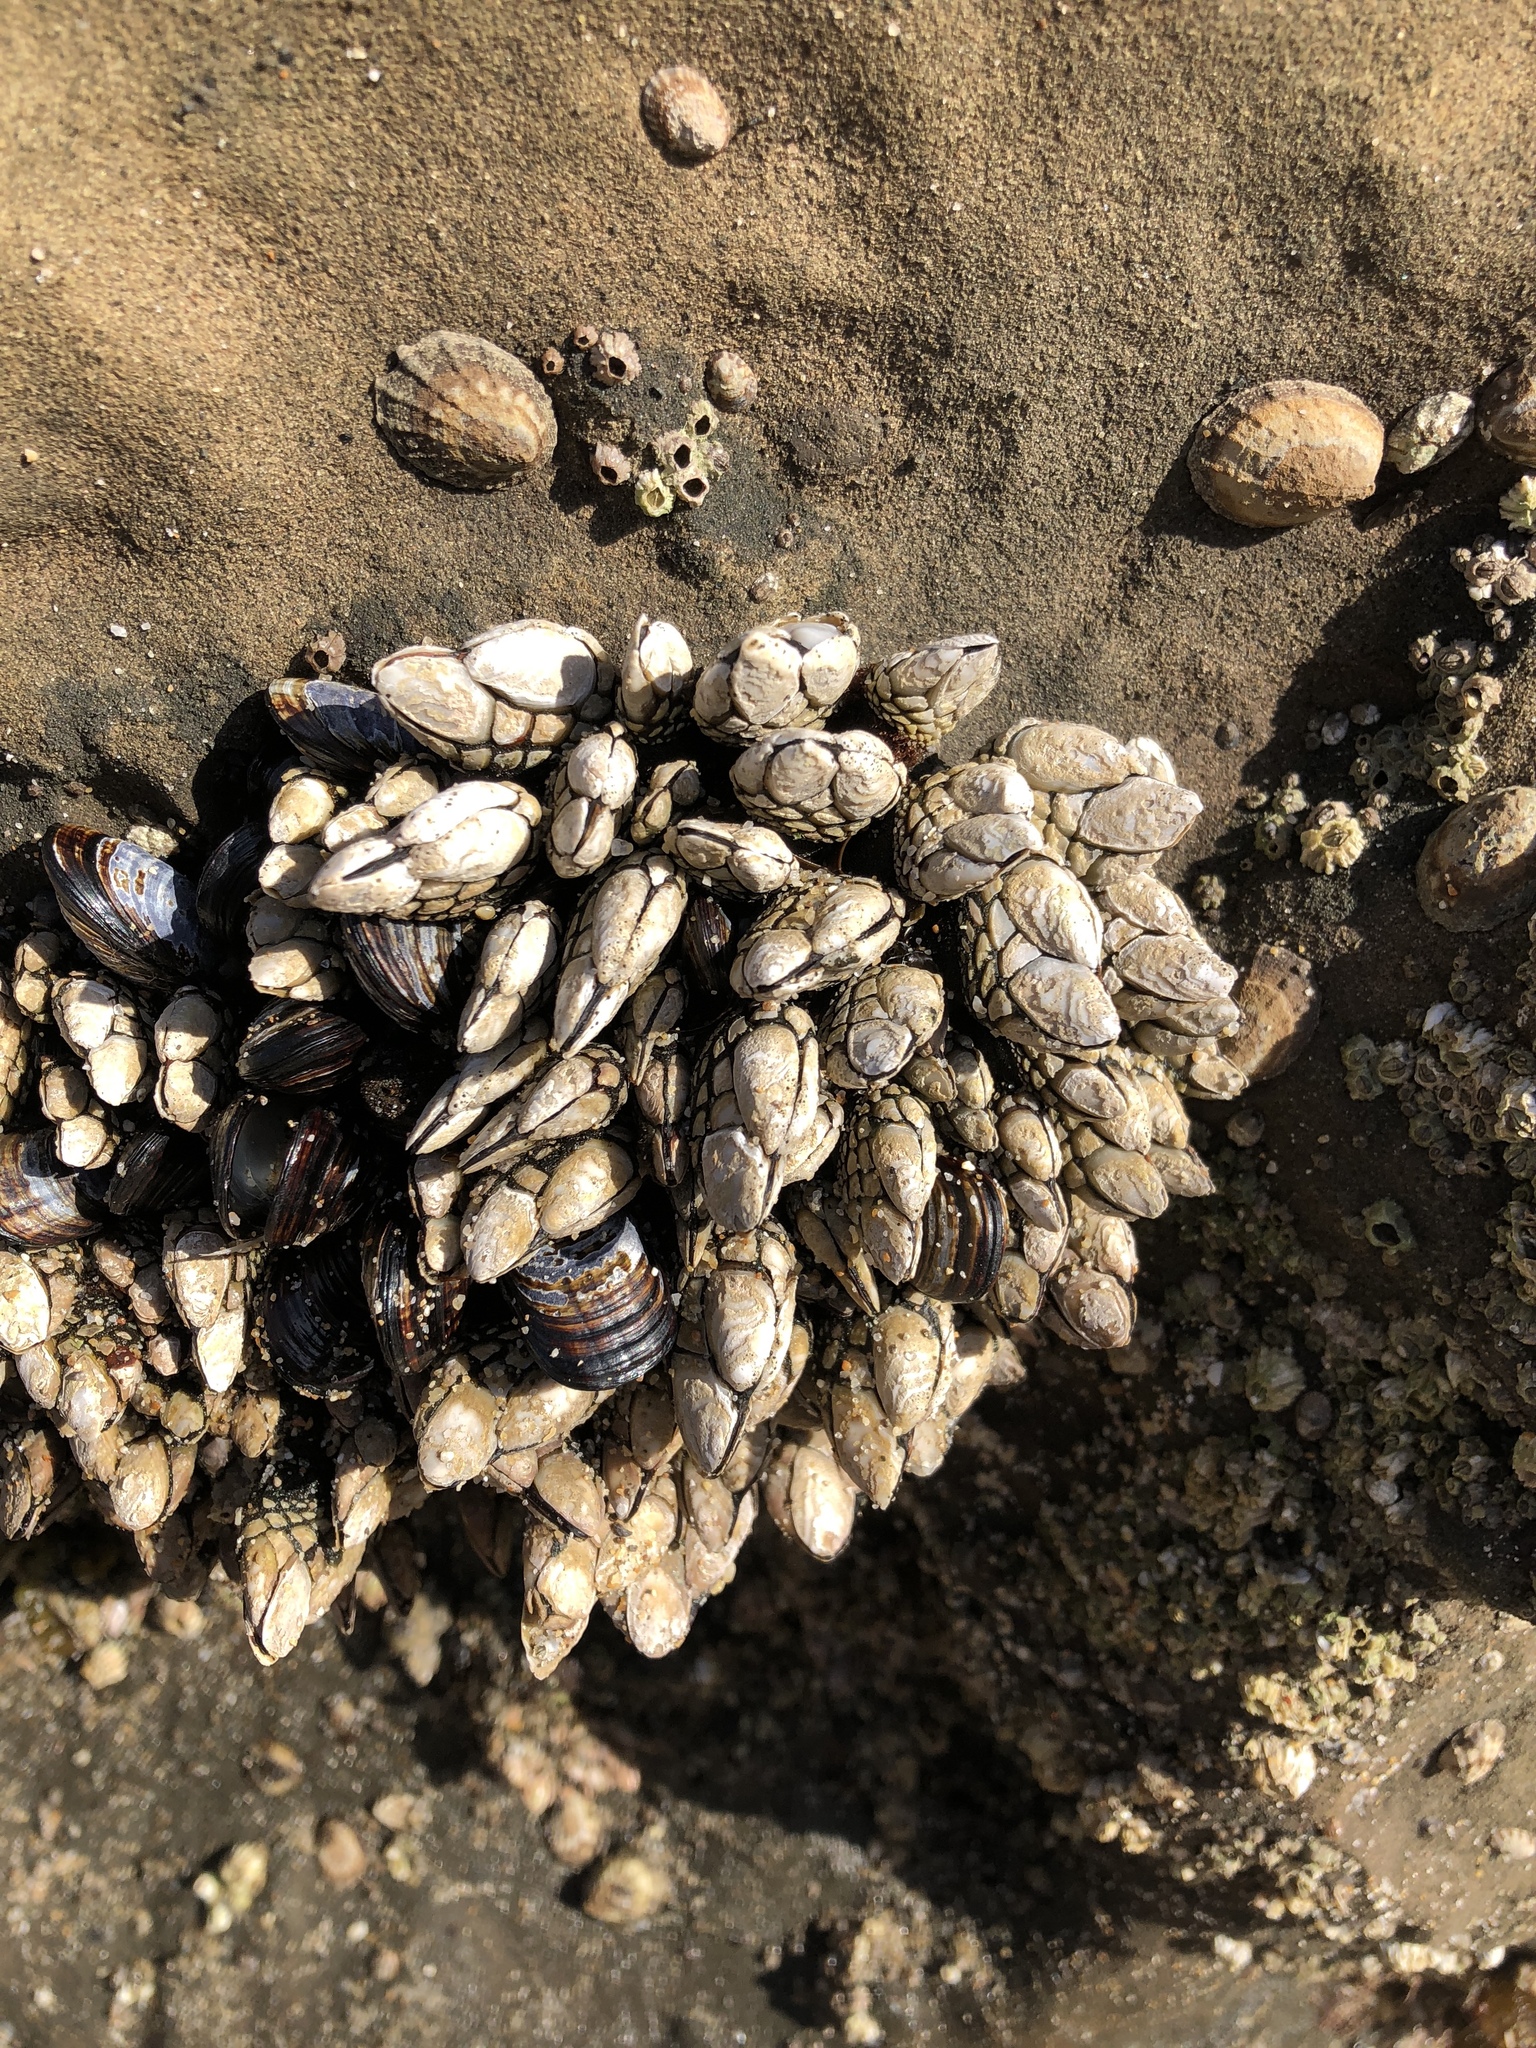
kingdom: Animalia
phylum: Arthropoda
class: Maxillopoda
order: Pedunculata
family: Pollicipedidae
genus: Pollicipes
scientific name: Pollicipes polymerus
